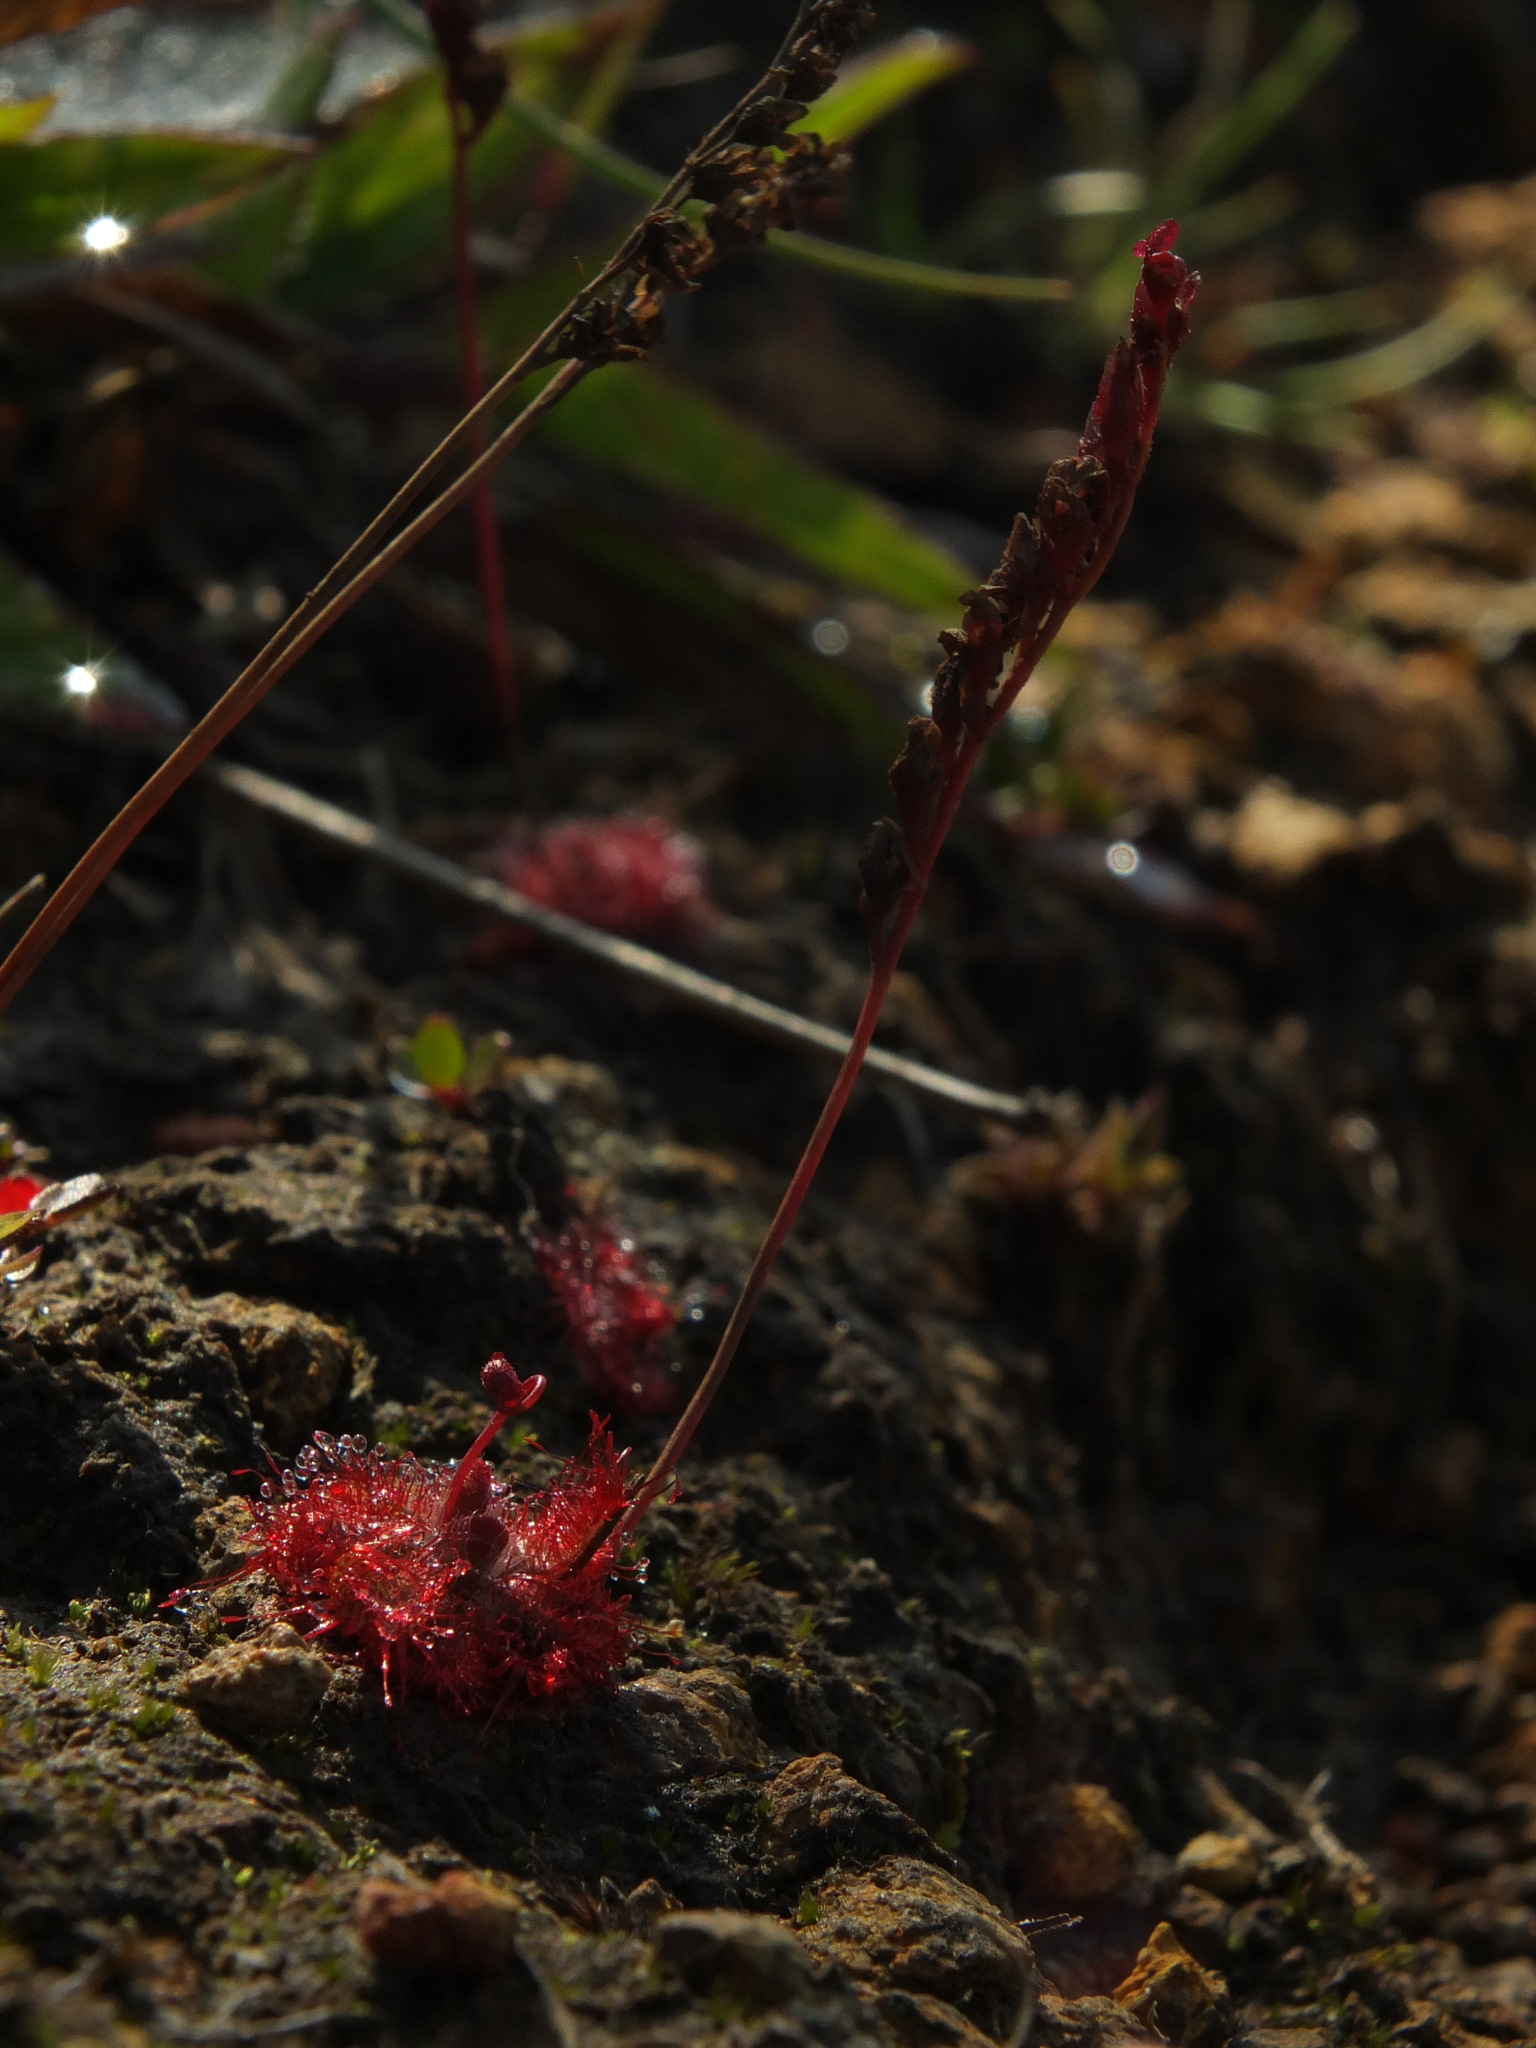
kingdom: Plantae
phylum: Tracheophyta
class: Magnoliopsida
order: Caryophyllales
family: Droseraceae
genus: Drosera
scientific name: Drosera spatulata
